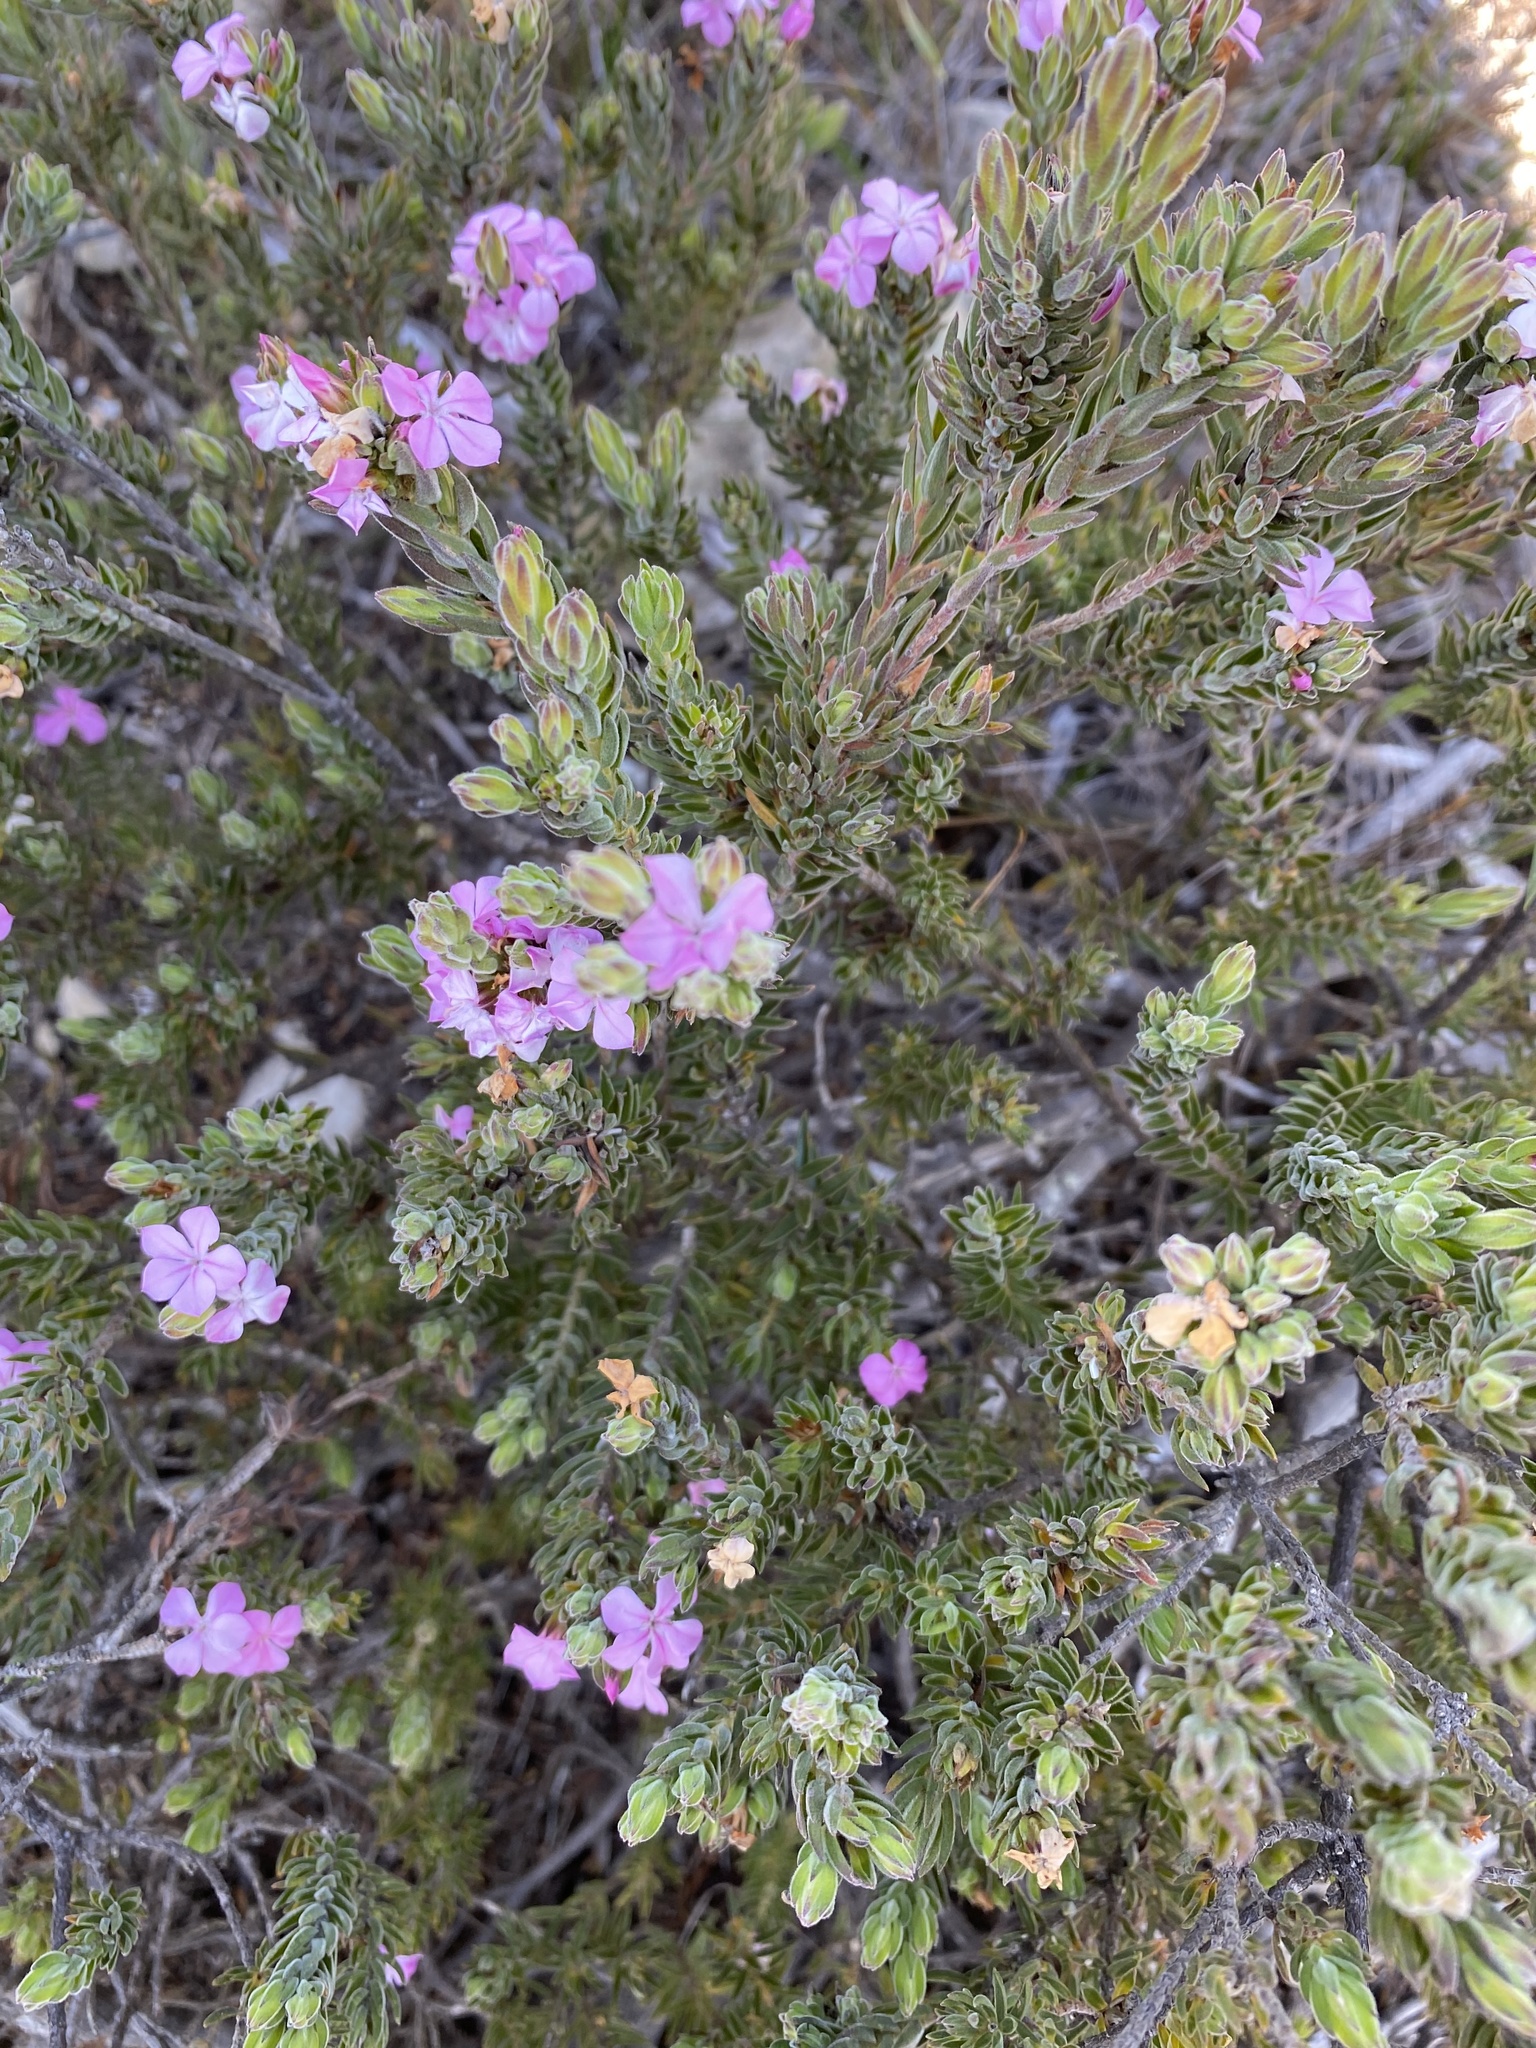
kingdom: Plantae
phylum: Tracheophyta
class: Magnoliopsida
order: Sapindales
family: Rutaceae
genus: Acmadenia
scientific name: Acmadenia densifolia
